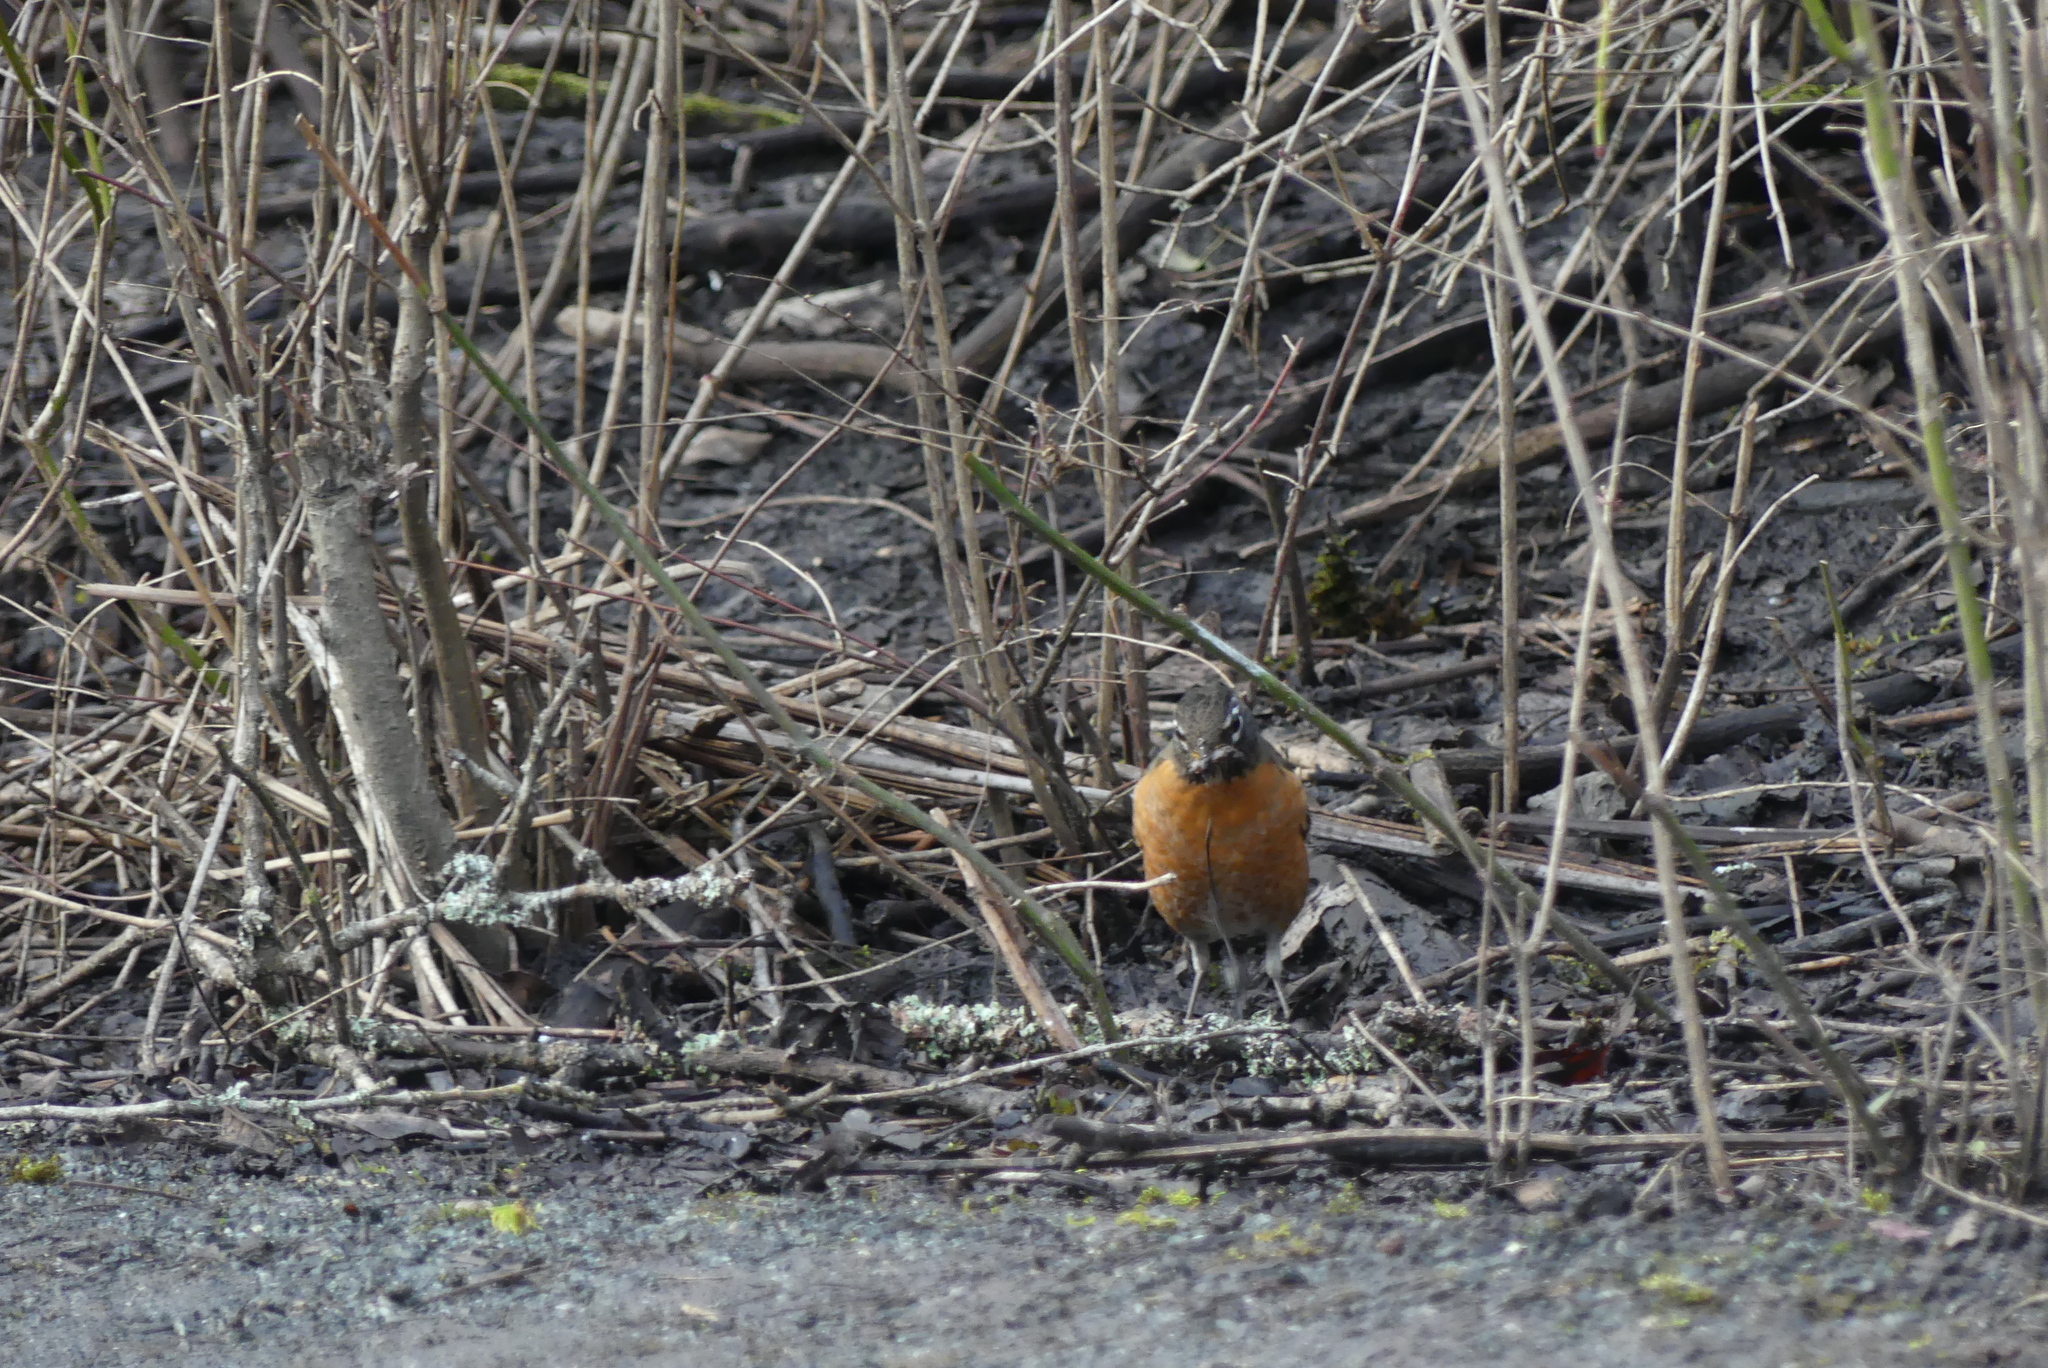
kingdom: Animalia
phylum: Chordata
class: Aves
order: Passeriformes
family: Turdidae
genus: Turdus
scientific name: Turdus migratorius
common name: American robin
